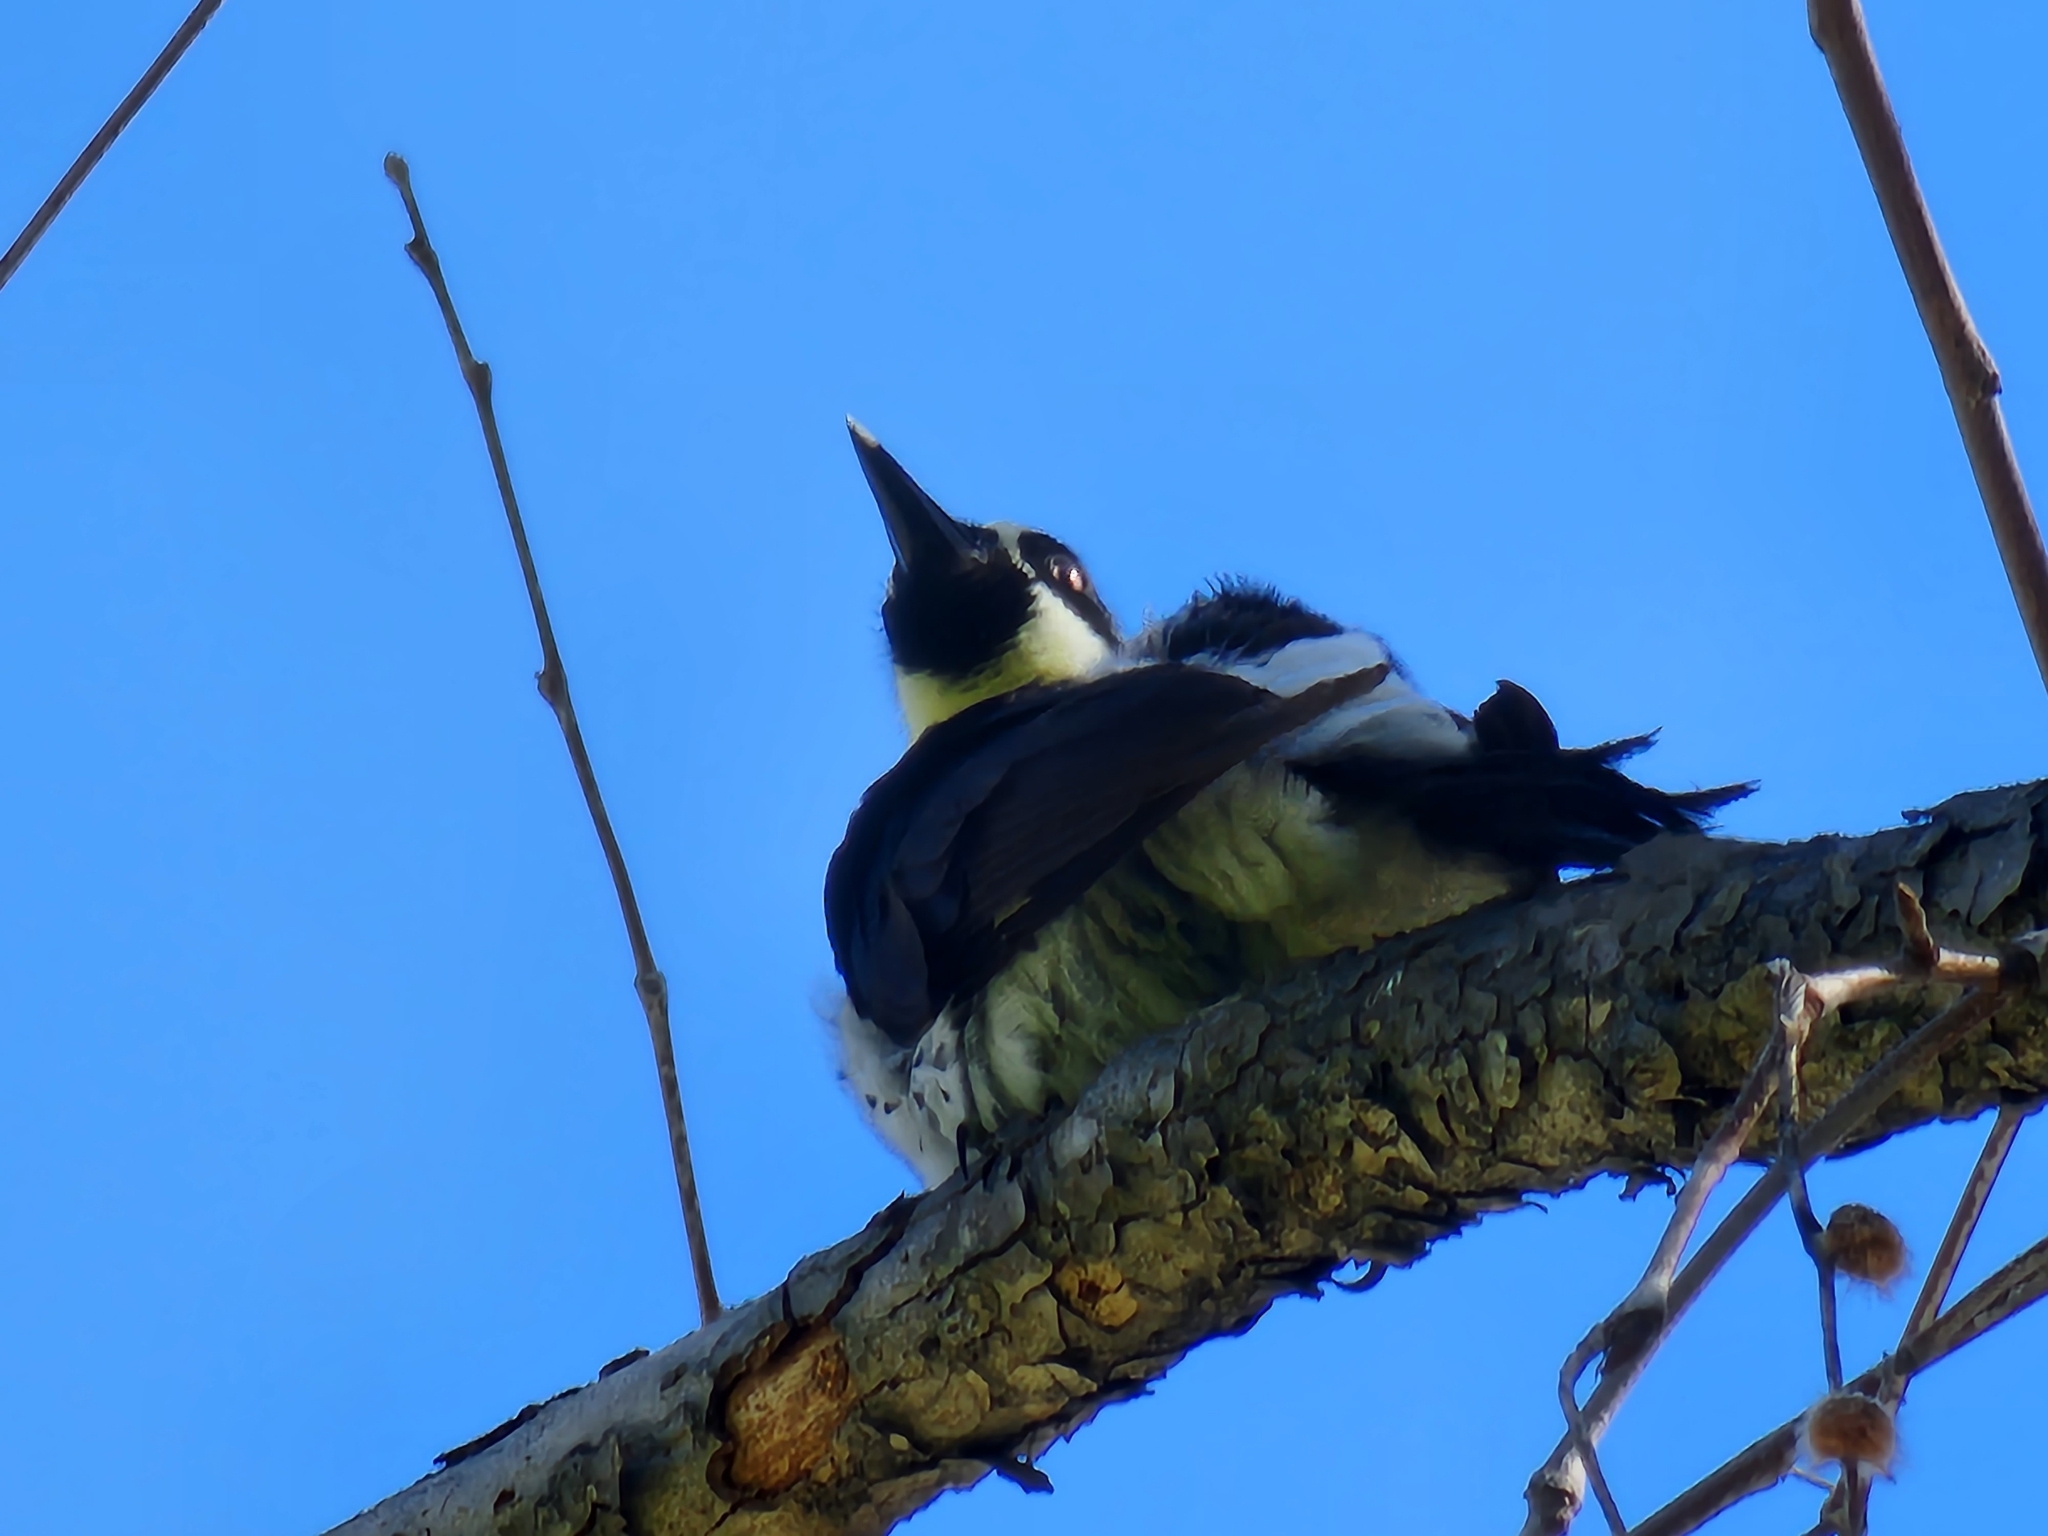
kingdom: Animalia
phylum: Chordata
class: Aves
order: Piciformes
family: Picidae
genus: Melanerpes
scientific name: Melanerpes formicivorus
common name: Acorn woodpecker
